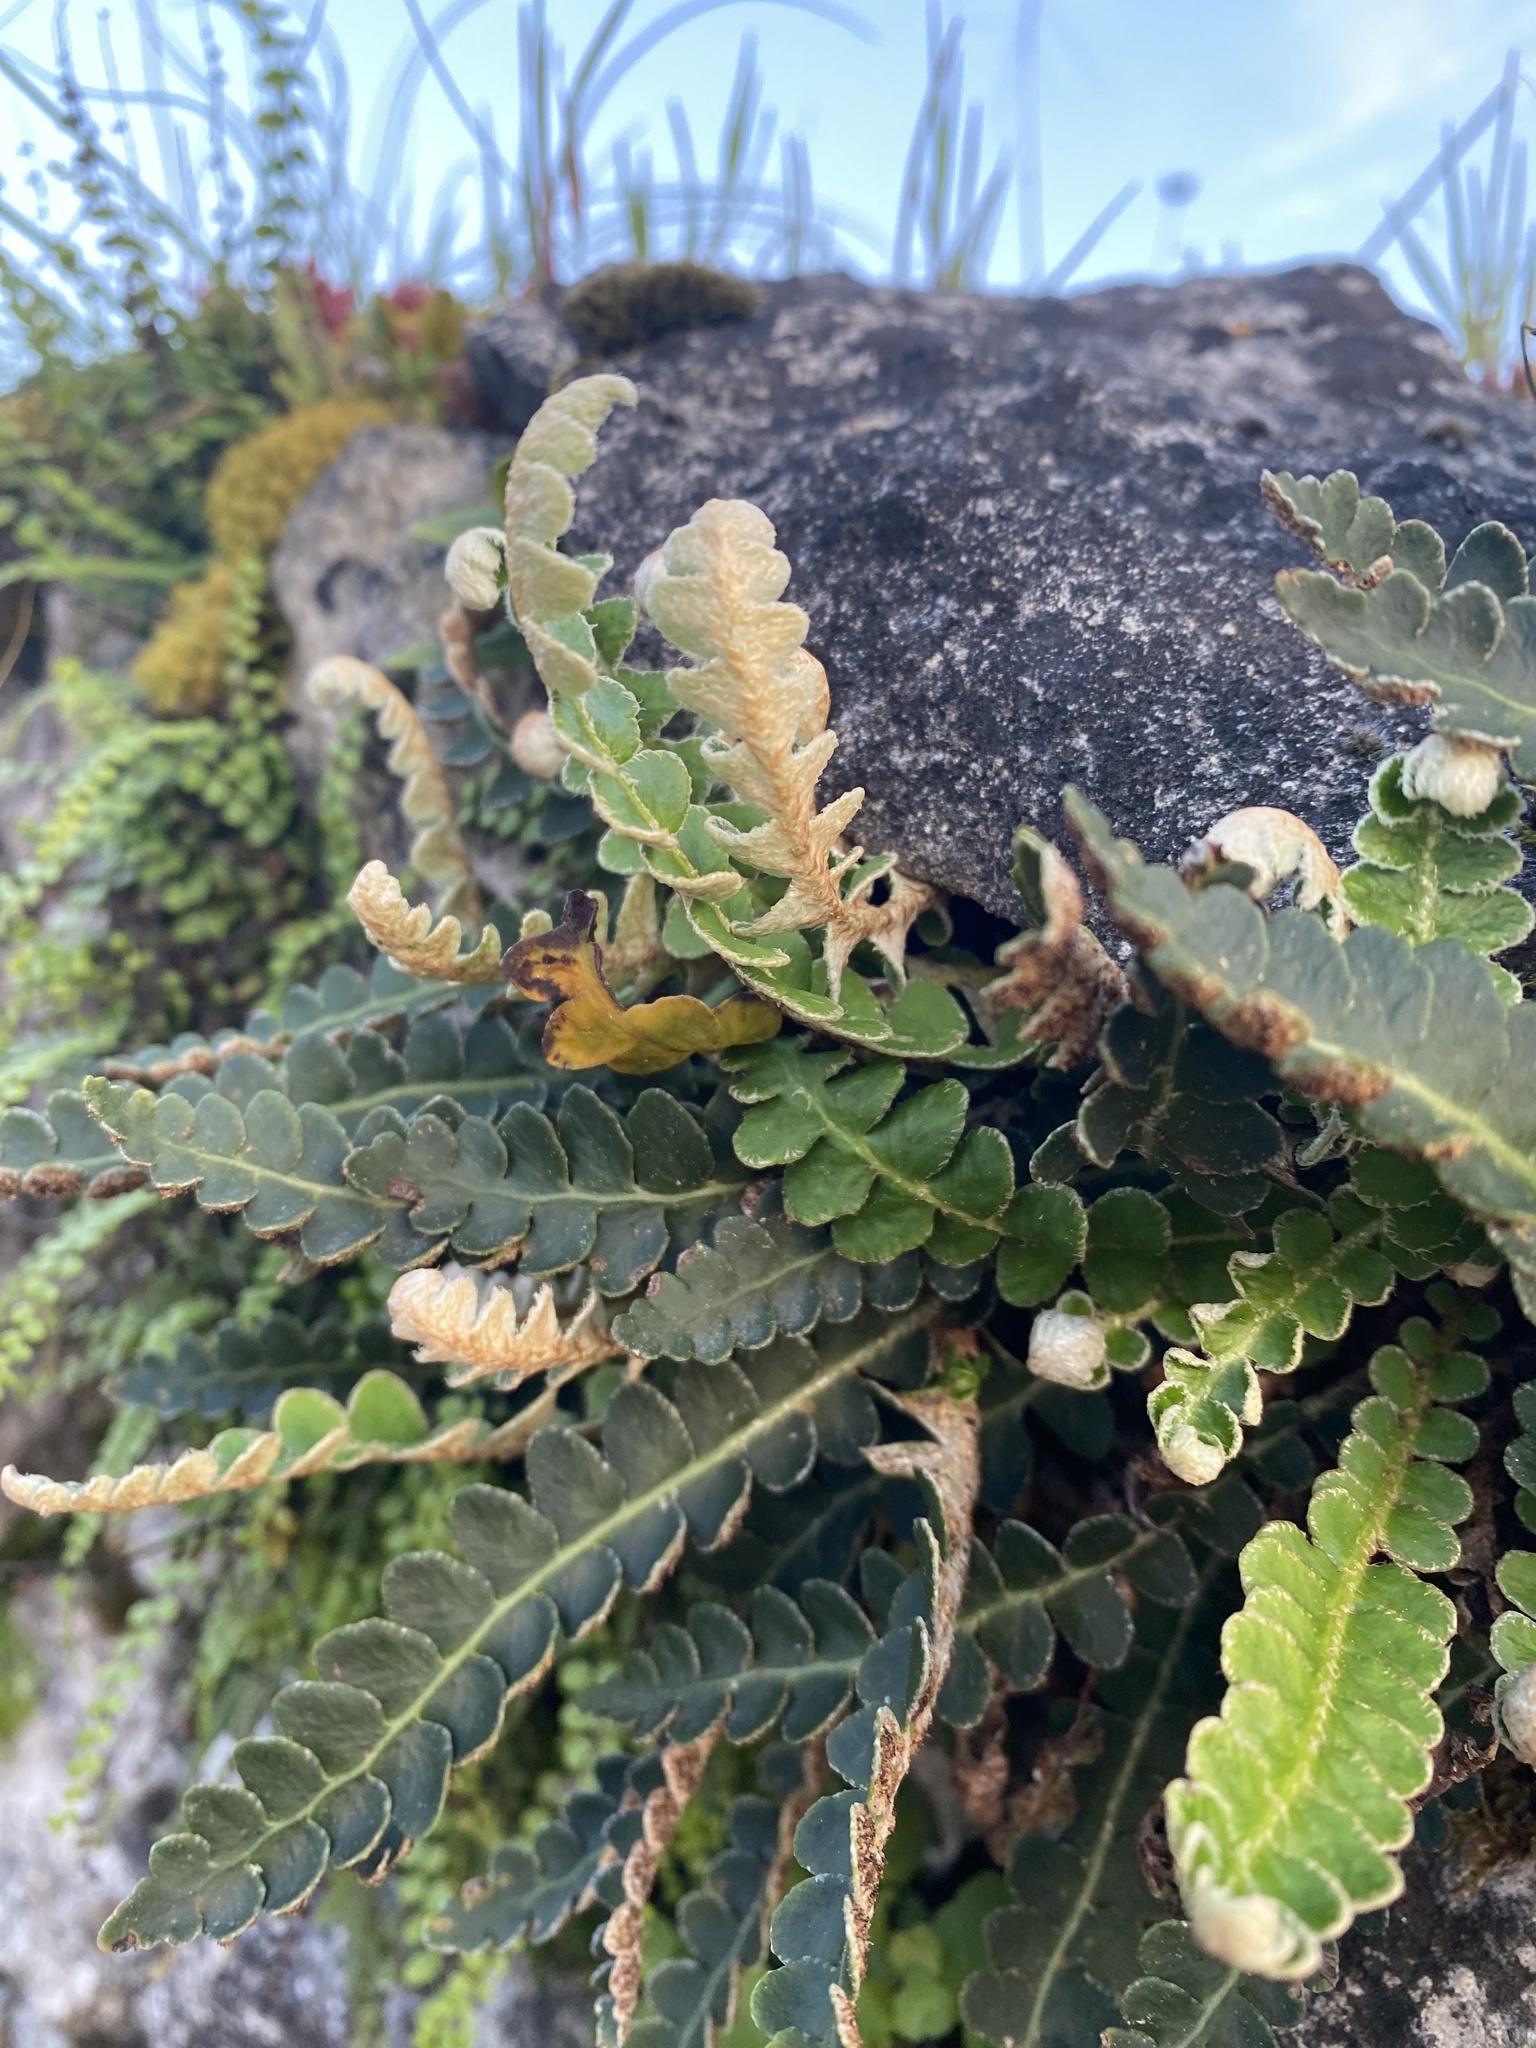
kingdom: Plantae
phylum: Tracheophyta
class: Polypodiopsida
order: Polypodiales
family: Aspleniaceae
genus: Asplenium
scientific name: Asplenium ceterach
